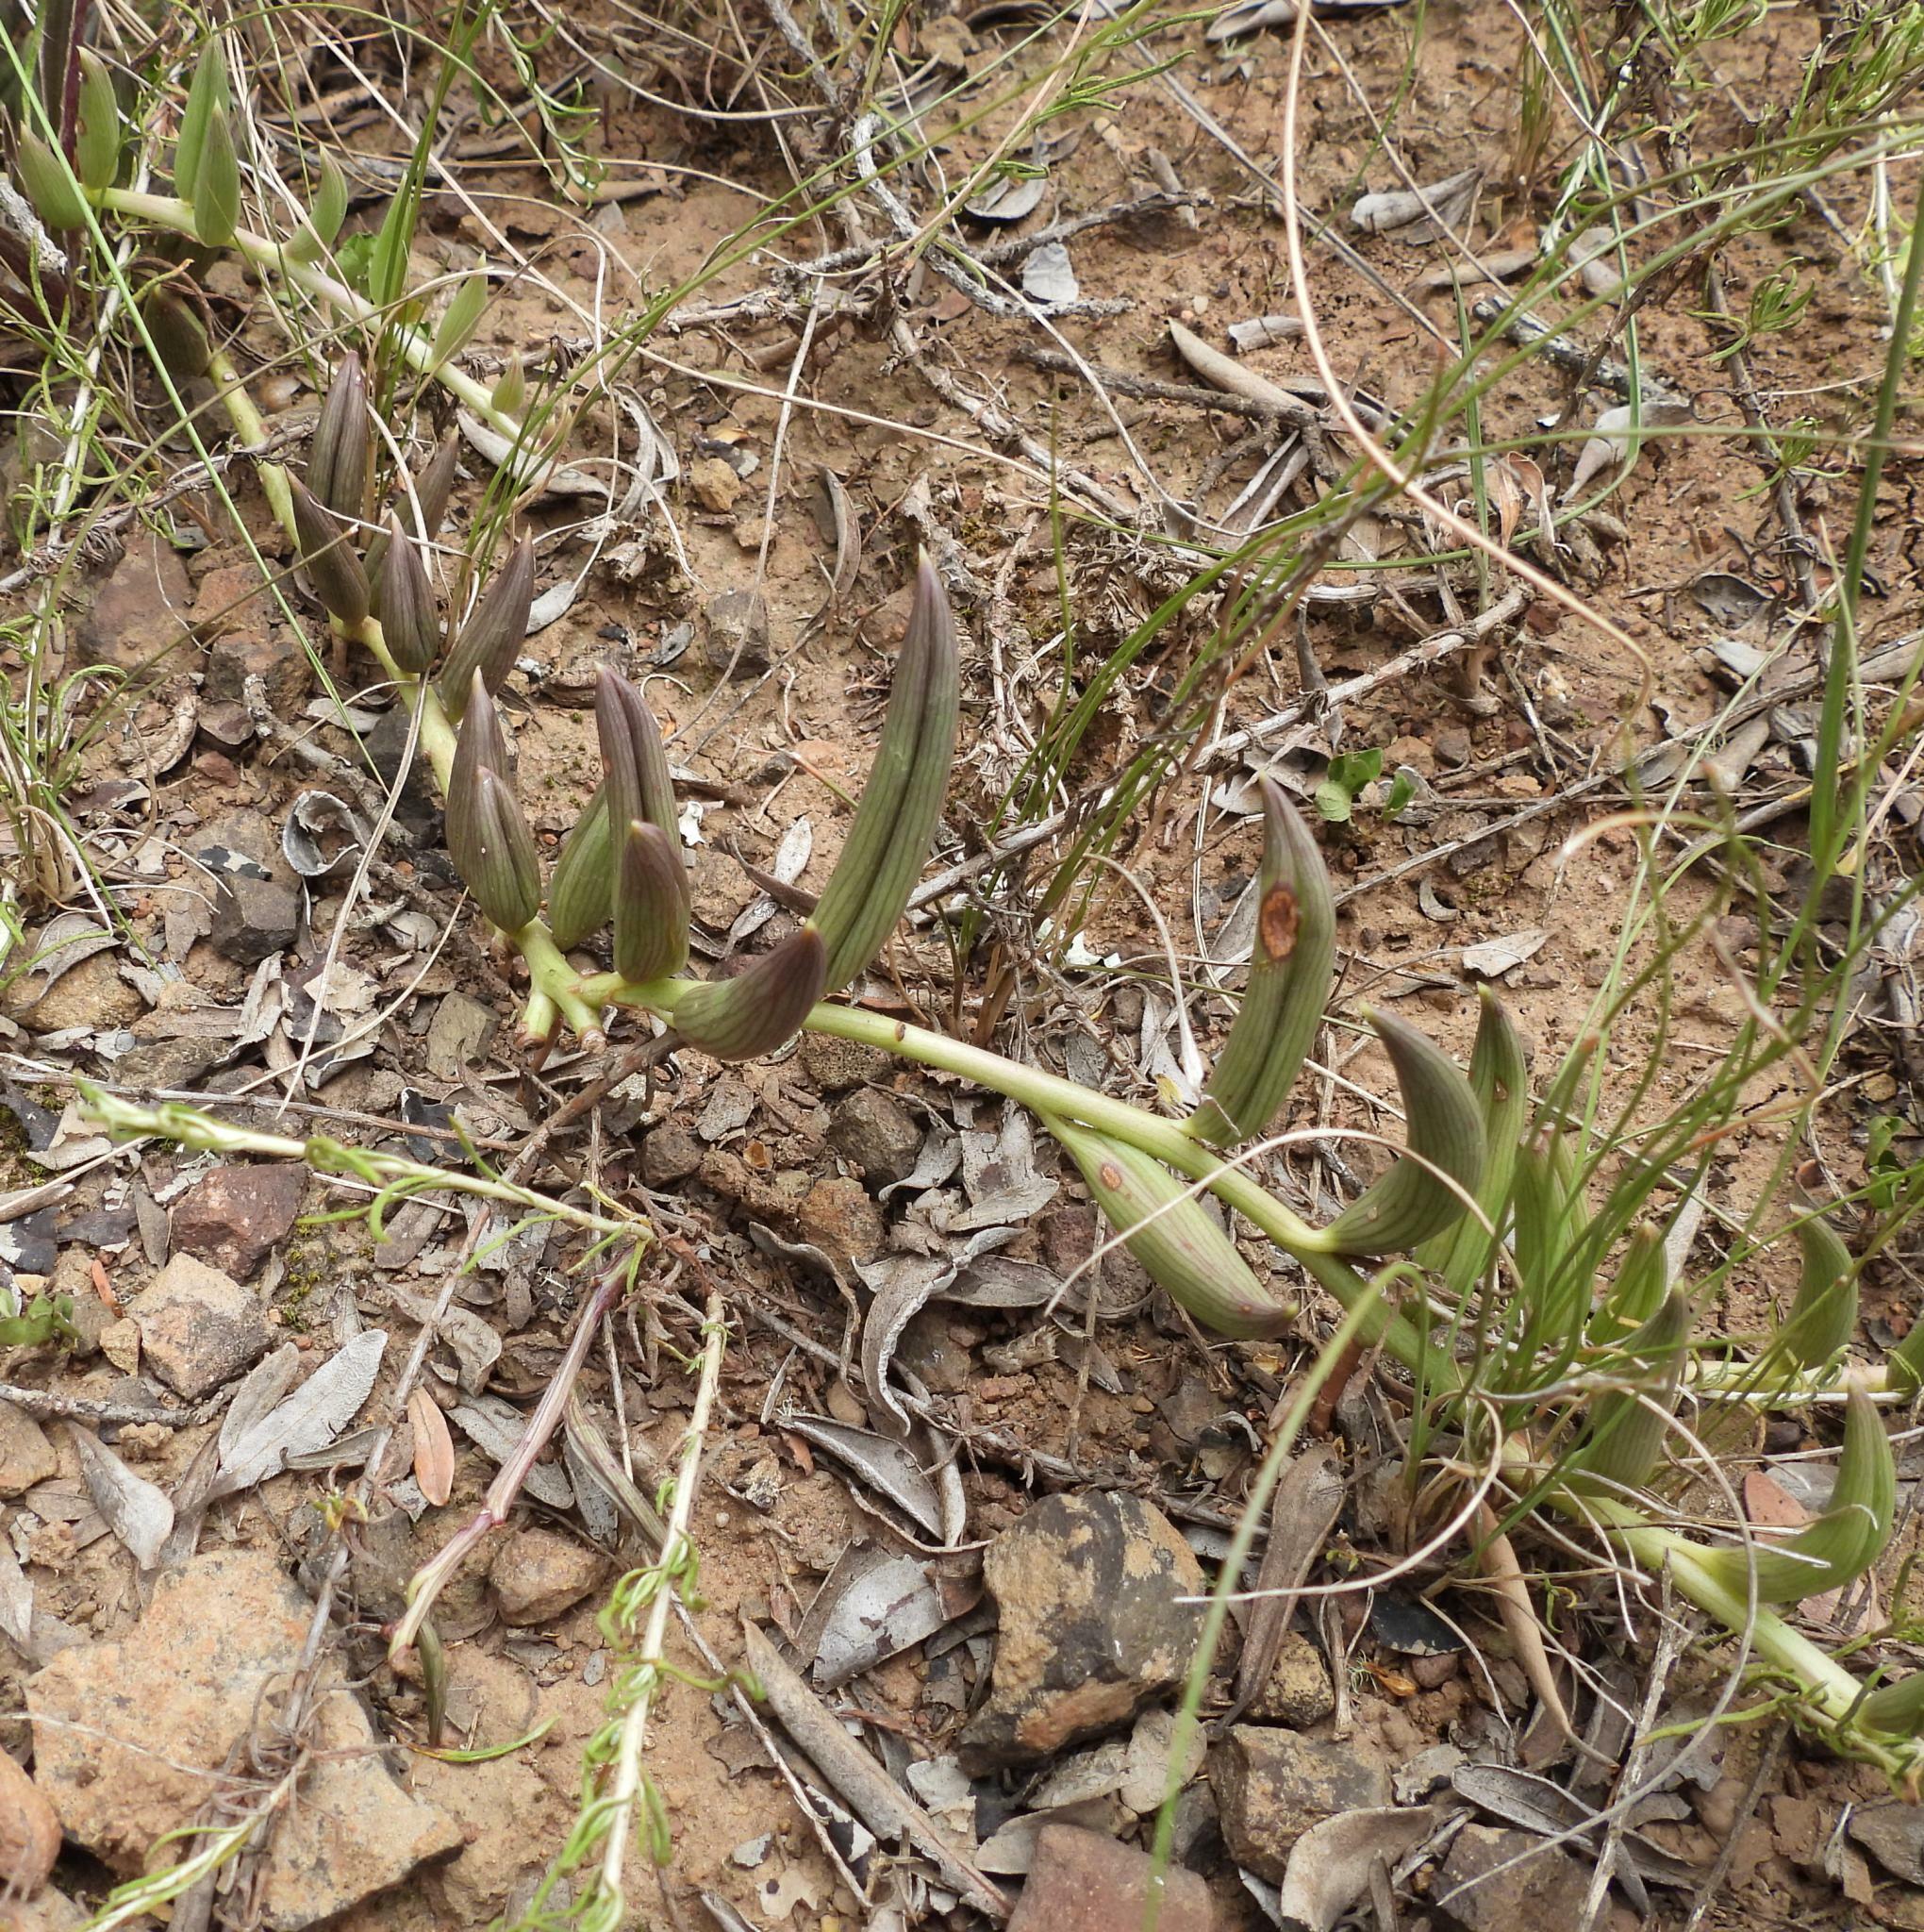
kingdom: Plantae
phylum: Tracheophyta
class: Magnoliopsida
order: Asterales
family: Asteraceae
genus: Curio
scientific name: Curio radicans
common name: Creeping-berry
